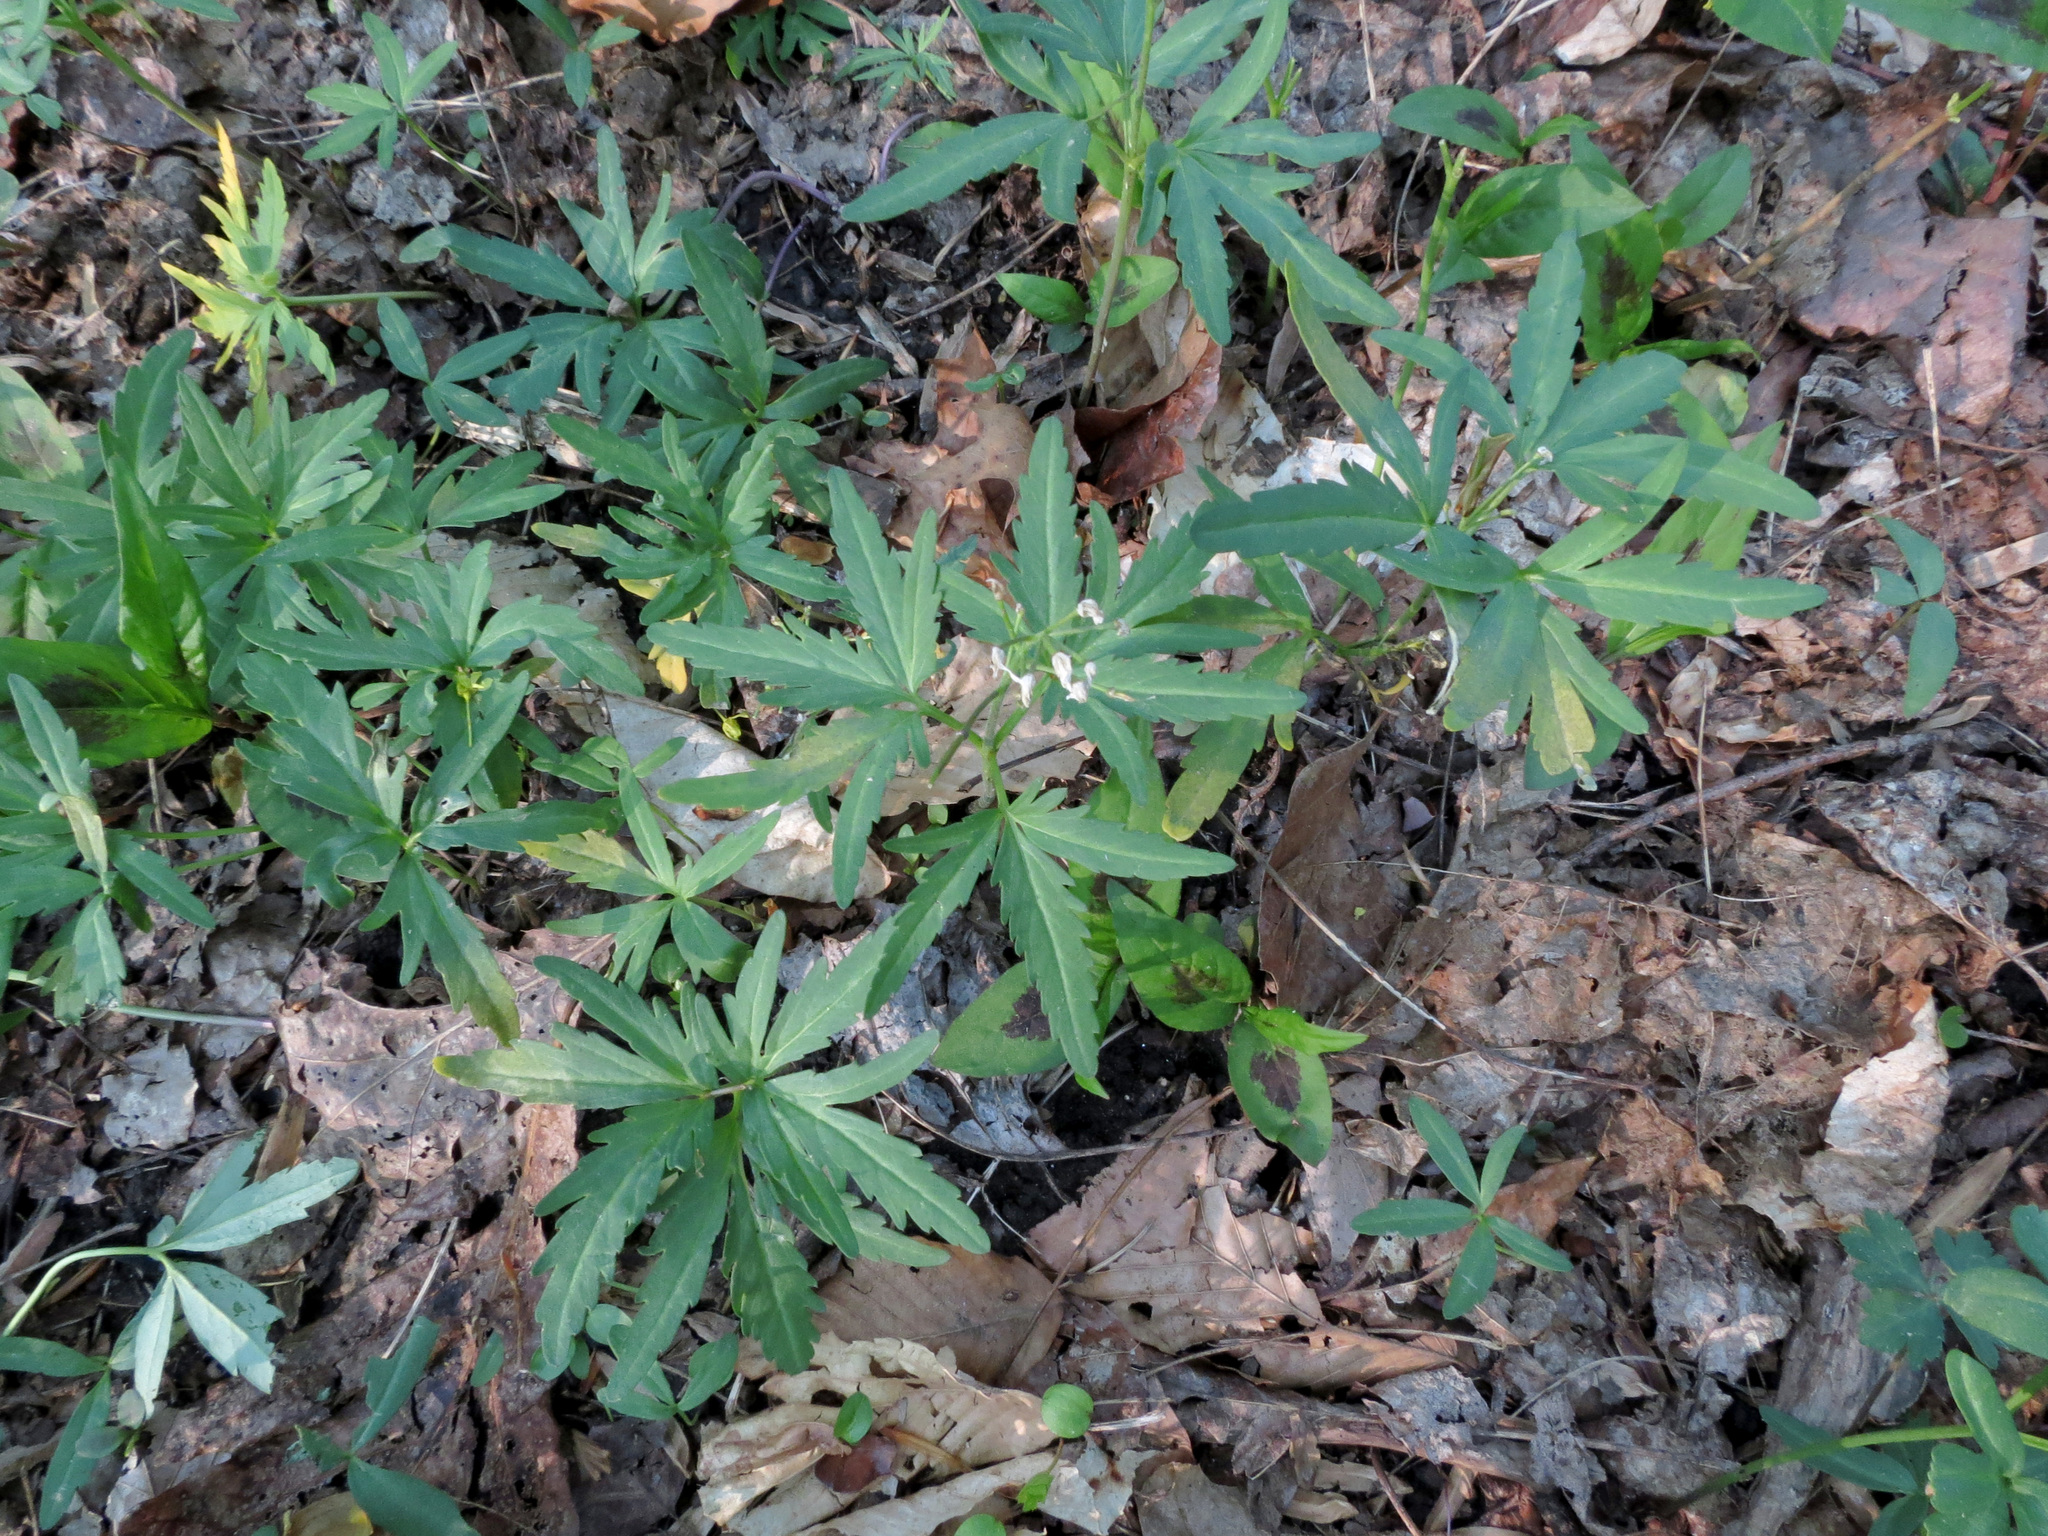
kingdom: Plantae
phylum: Tracheophyta
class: Magnoliopsida
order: Brassicales
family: Brassicaceae
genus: Cardamine
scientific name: Cardamine concatenata
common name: Cut-leaf toothcup
